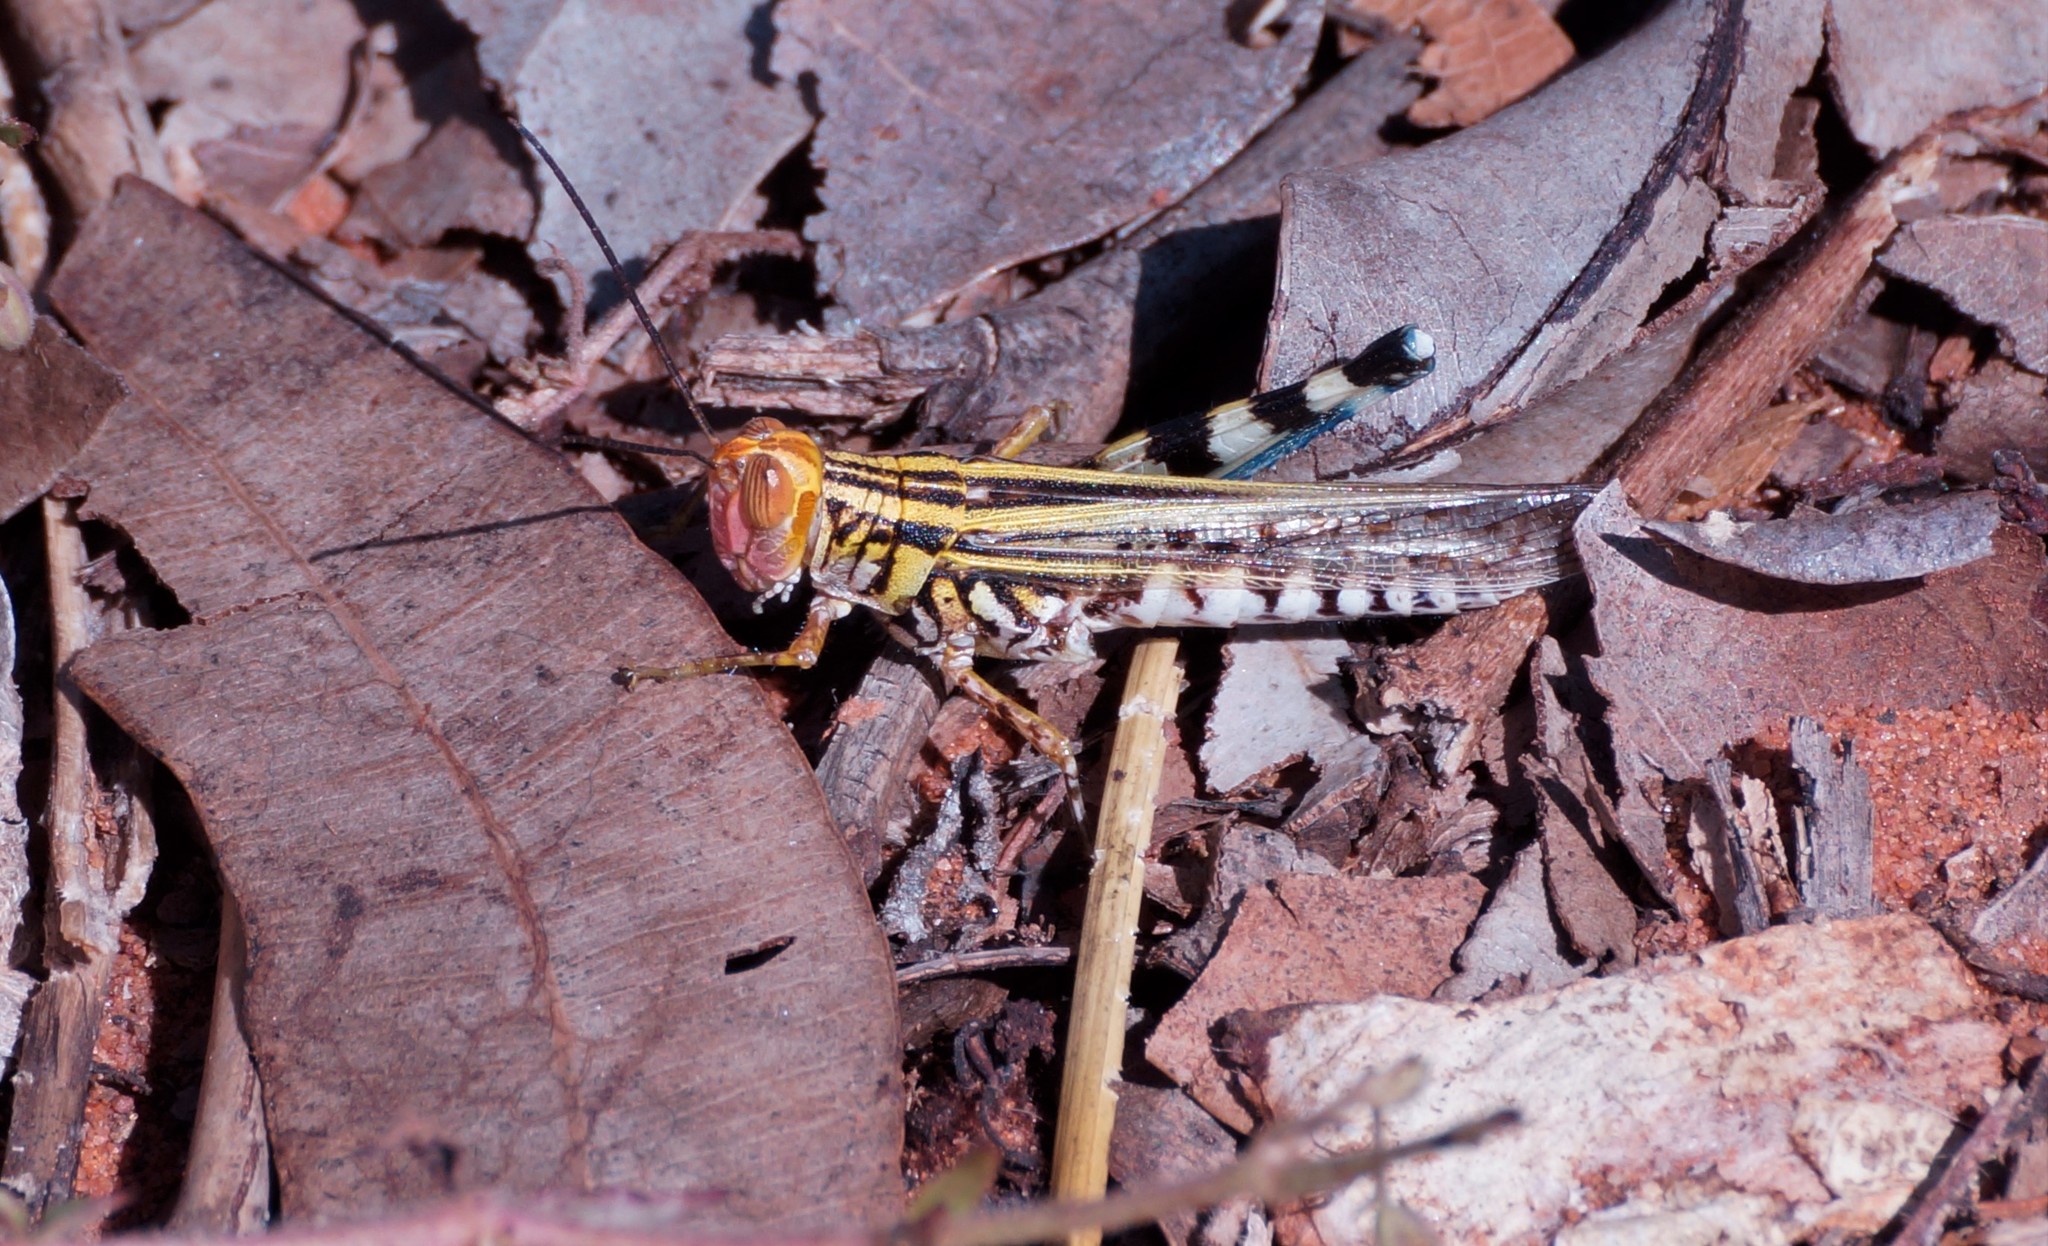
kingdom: Animalia
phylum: Arthropoda
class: Insecta
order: Orthoptera
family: Acrididae
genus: Zebratula
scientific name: Zebratula flavonigra
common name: Zebra grasshopper
